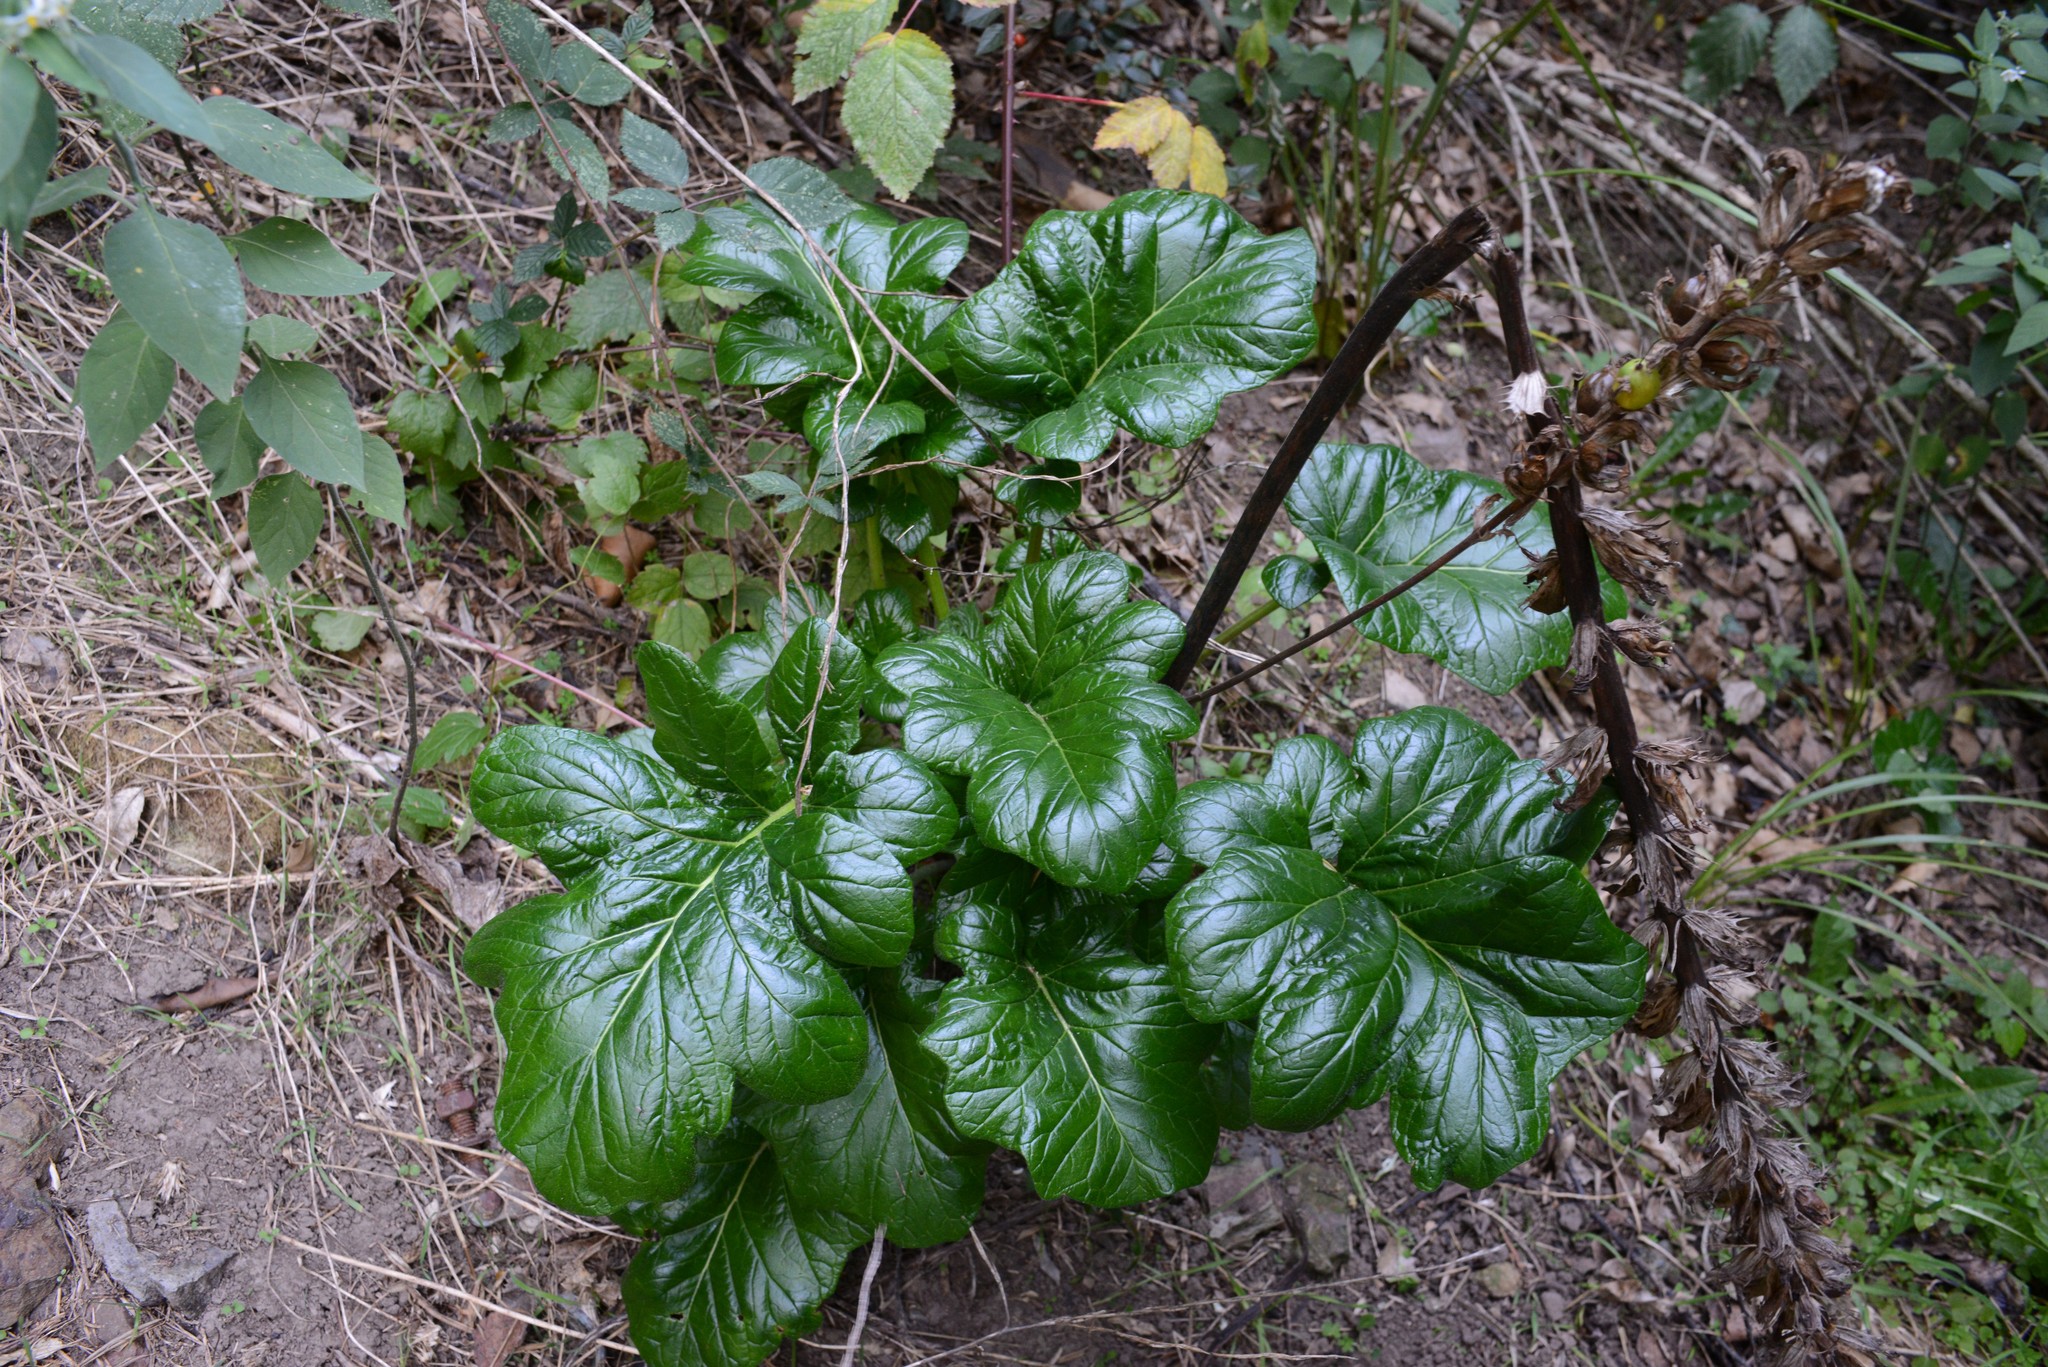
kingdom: Plantae
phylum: Tracheophyta
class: Magnoliopsida
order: Lamiales
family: Acanthaceae
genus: Acanthus
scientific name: Acanthus mollis
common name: Bear's-breech
